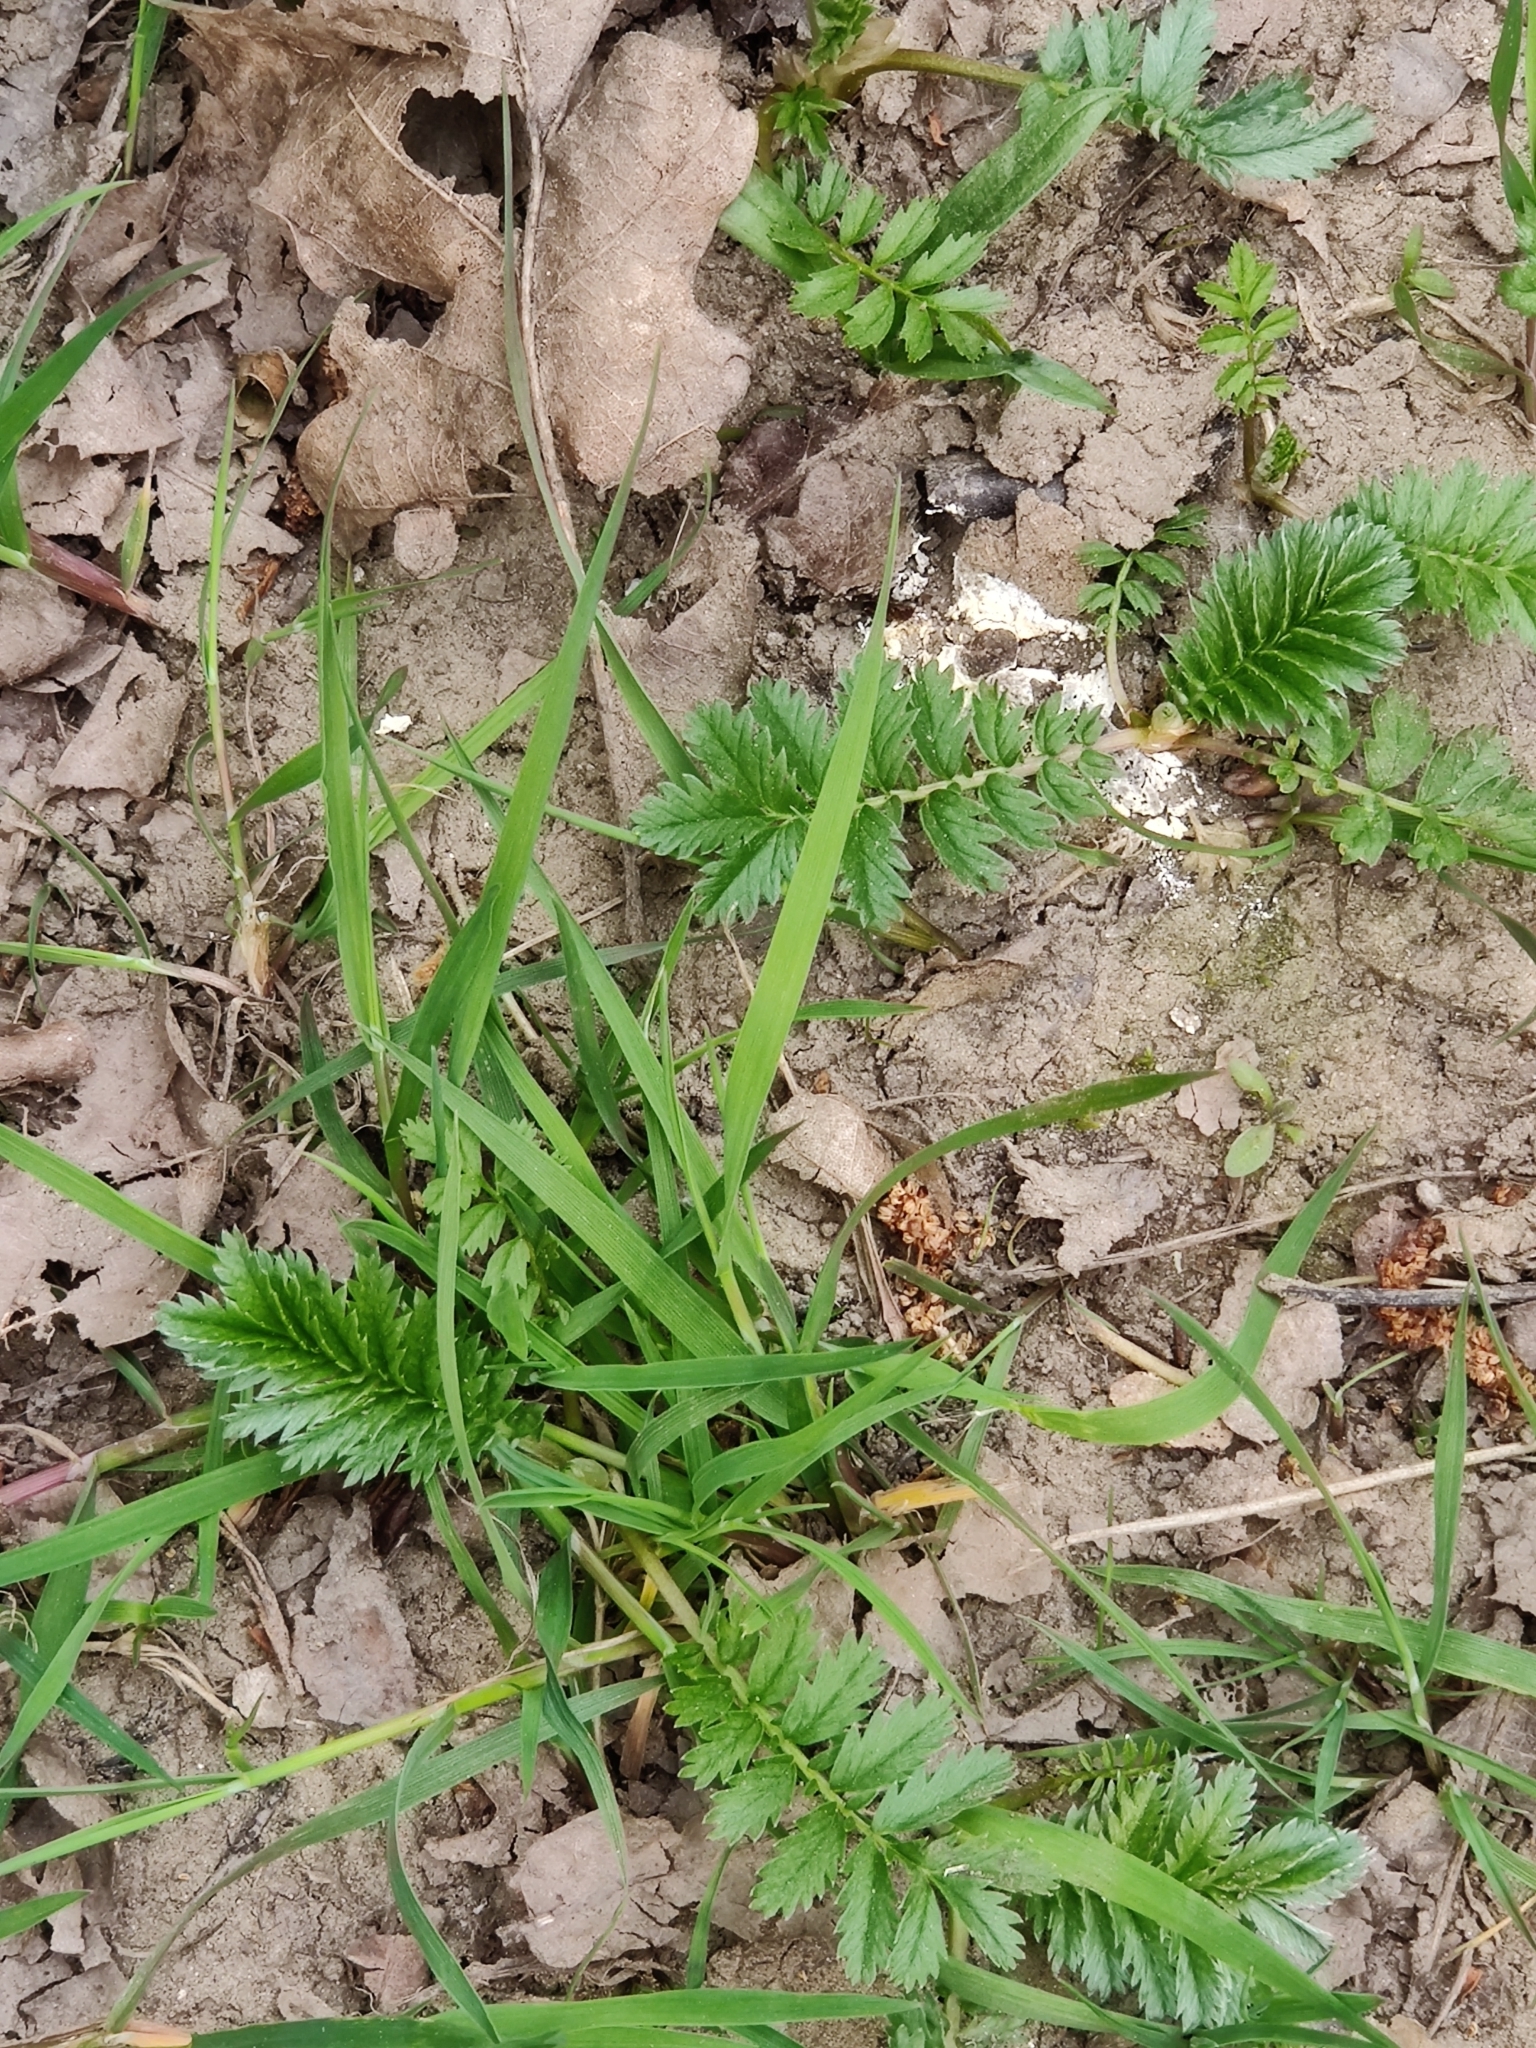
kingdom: Plantae
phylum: Tracheophyta
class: Magnoliopsida
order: Rosales
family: Rosaceae
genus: Argentina
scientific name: Argentina anserina
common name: Common silverweed
